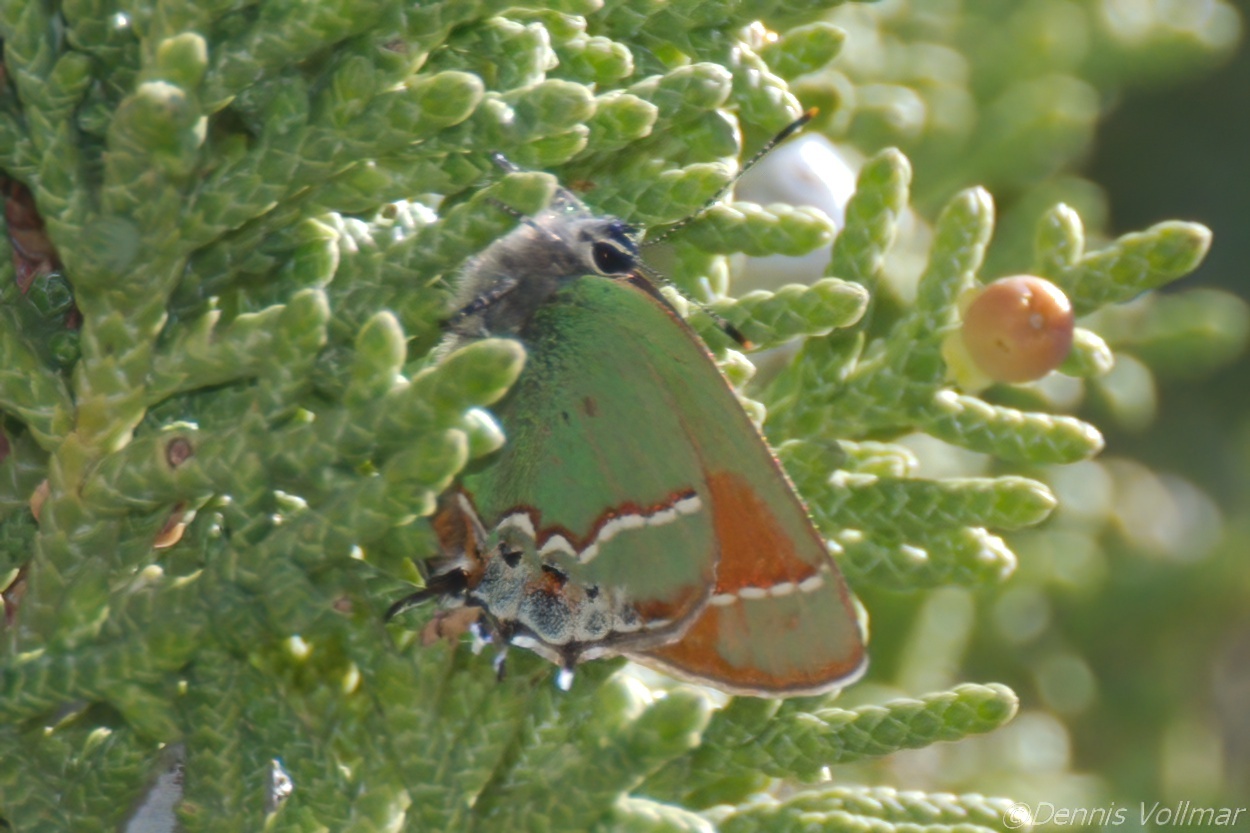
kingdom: Animalia
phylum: Arthropoda
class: Insecta
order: Lepidoptera
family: Lycaenidae
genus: Mitoura
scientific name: Mitoura gryneus
